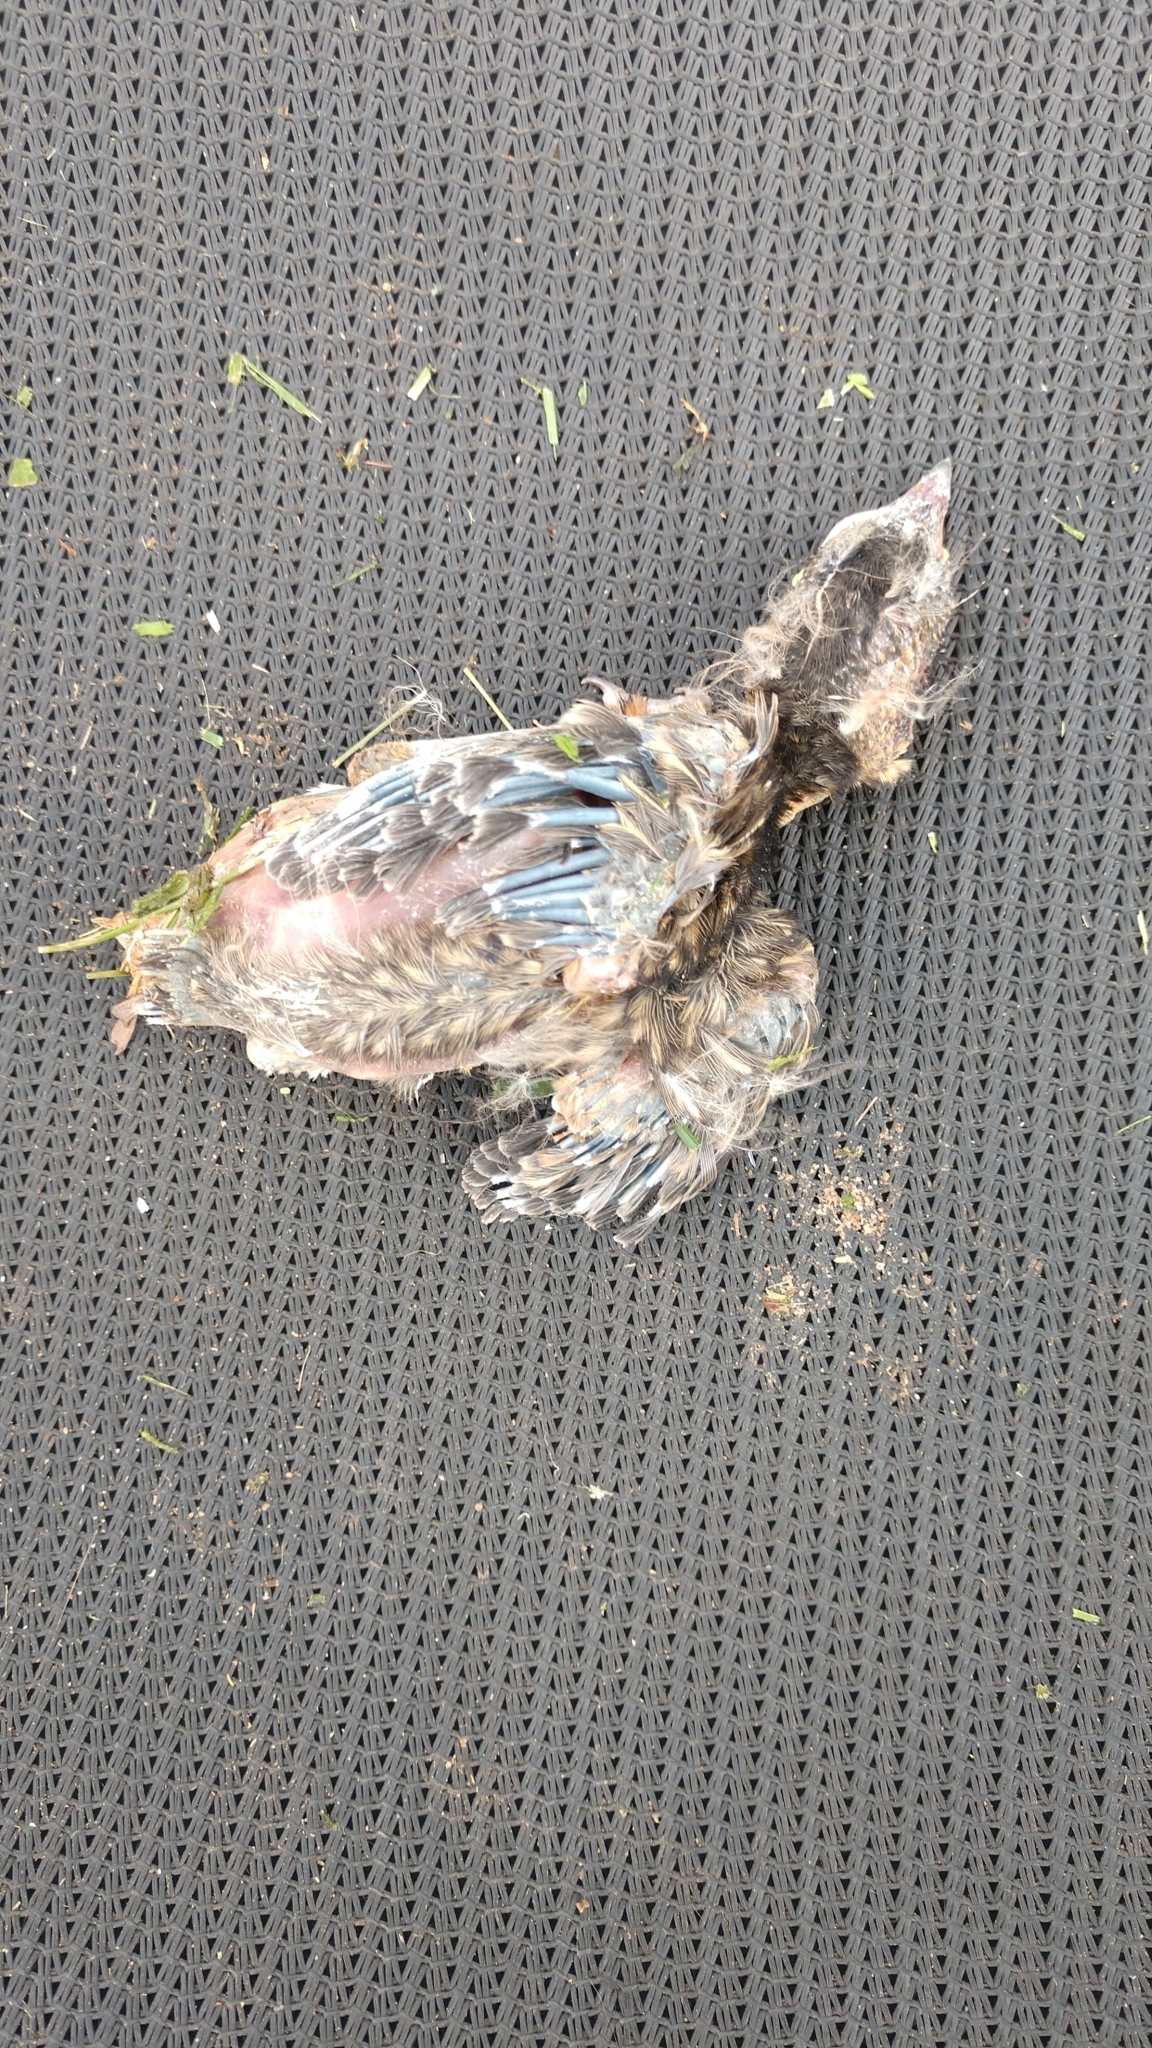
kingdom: Animalia
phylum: Chordata
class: Aves
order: Passeriformes
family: Turdidae
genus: Turdus
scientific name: Turdus migratorius
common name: American robin
